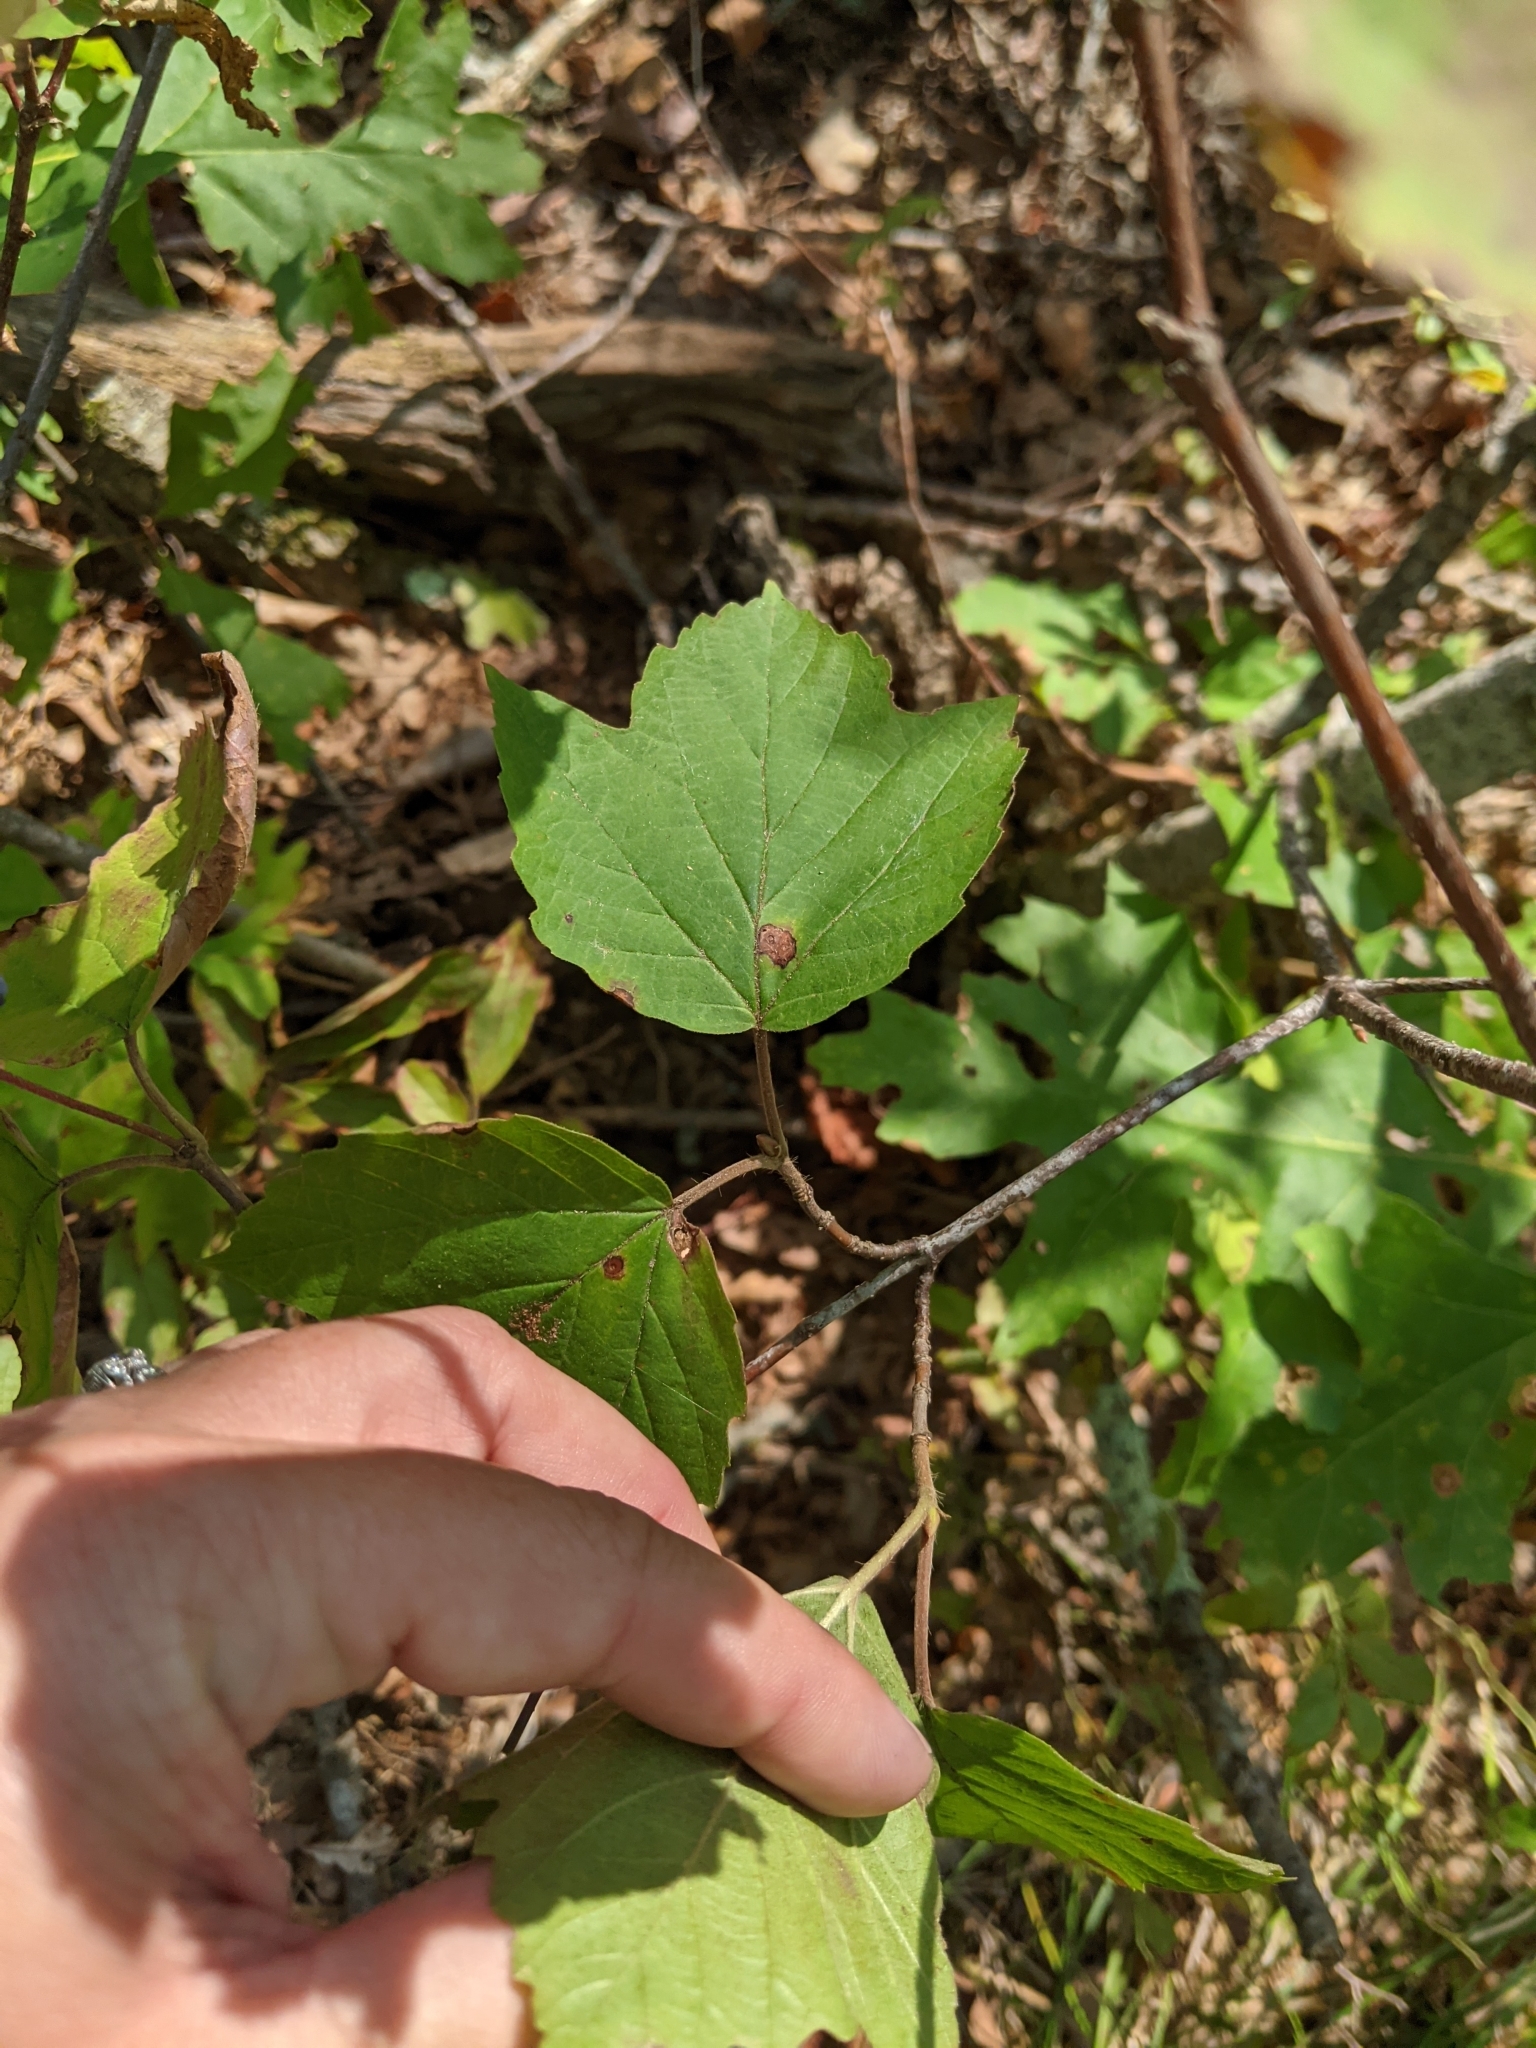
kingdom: Plantae
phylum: Tracheophyta
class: Magnoliopsida
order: Dipsacales
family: Viburnaceae
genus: Viburnum
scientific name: Viburnum acerifolium
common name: Dockmackie
